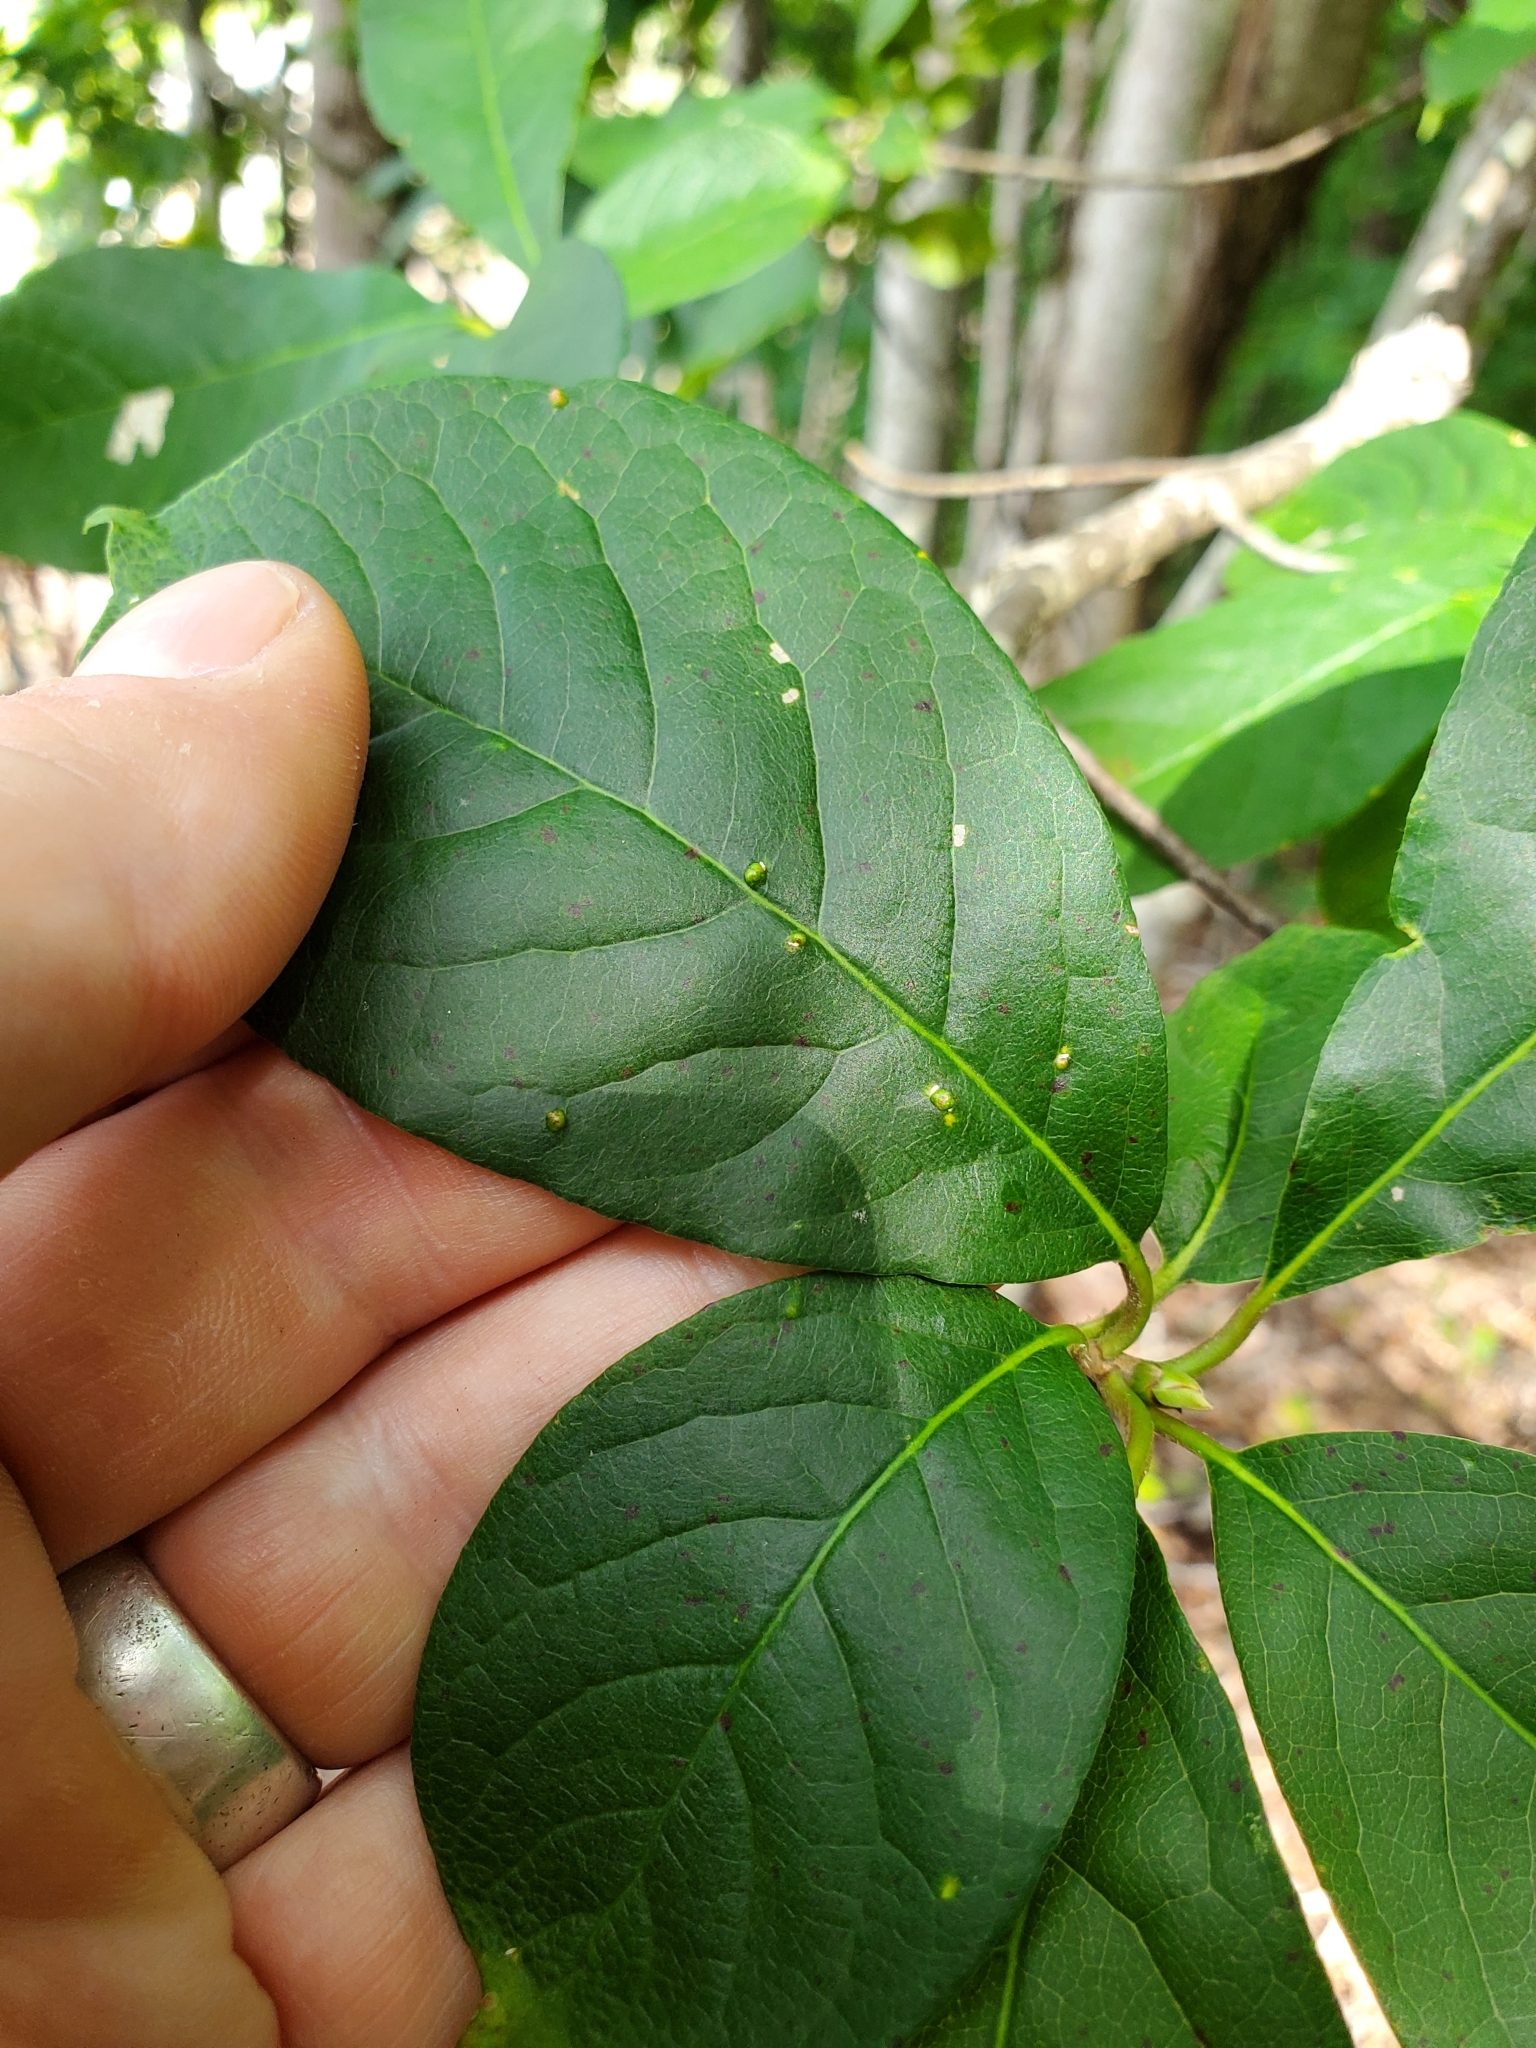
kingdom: Animalia
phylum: Arthropoda
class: Arachnida
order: Trombidiformes
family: Eriophyidae
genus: Aceria
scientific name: Aceria
